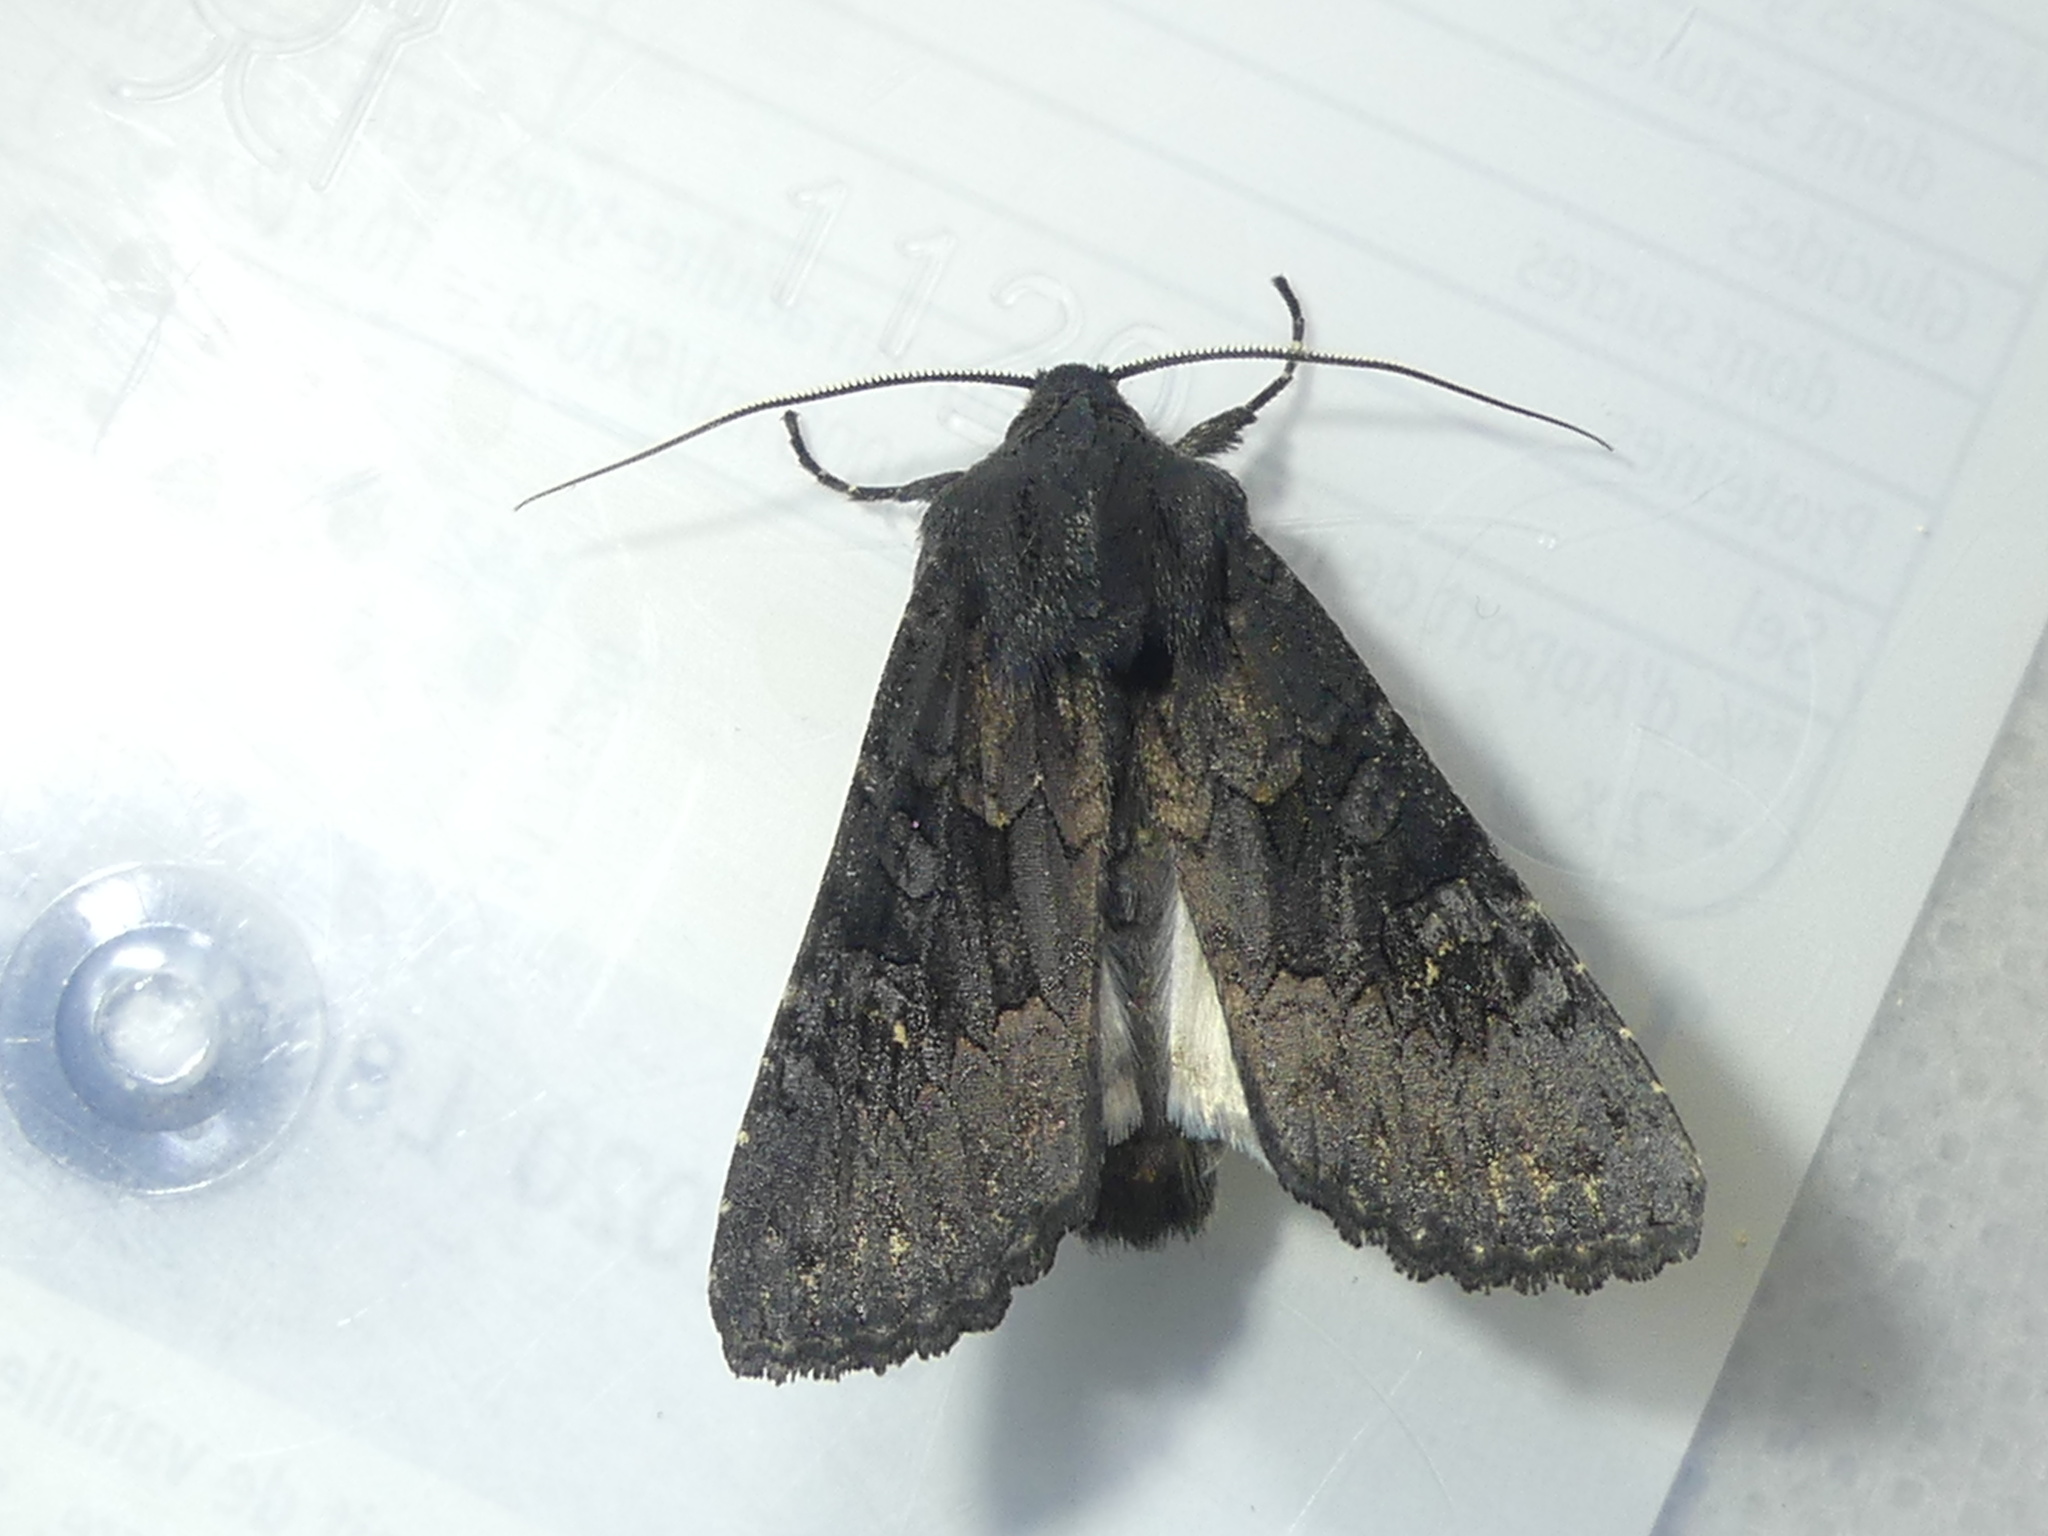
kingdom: Animalia
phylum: Arthropoda
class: Insecta
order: Lepidoptera
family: Noctuidae
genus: Aporophyla
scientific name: Aporophyla nigra
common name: Black rustic
